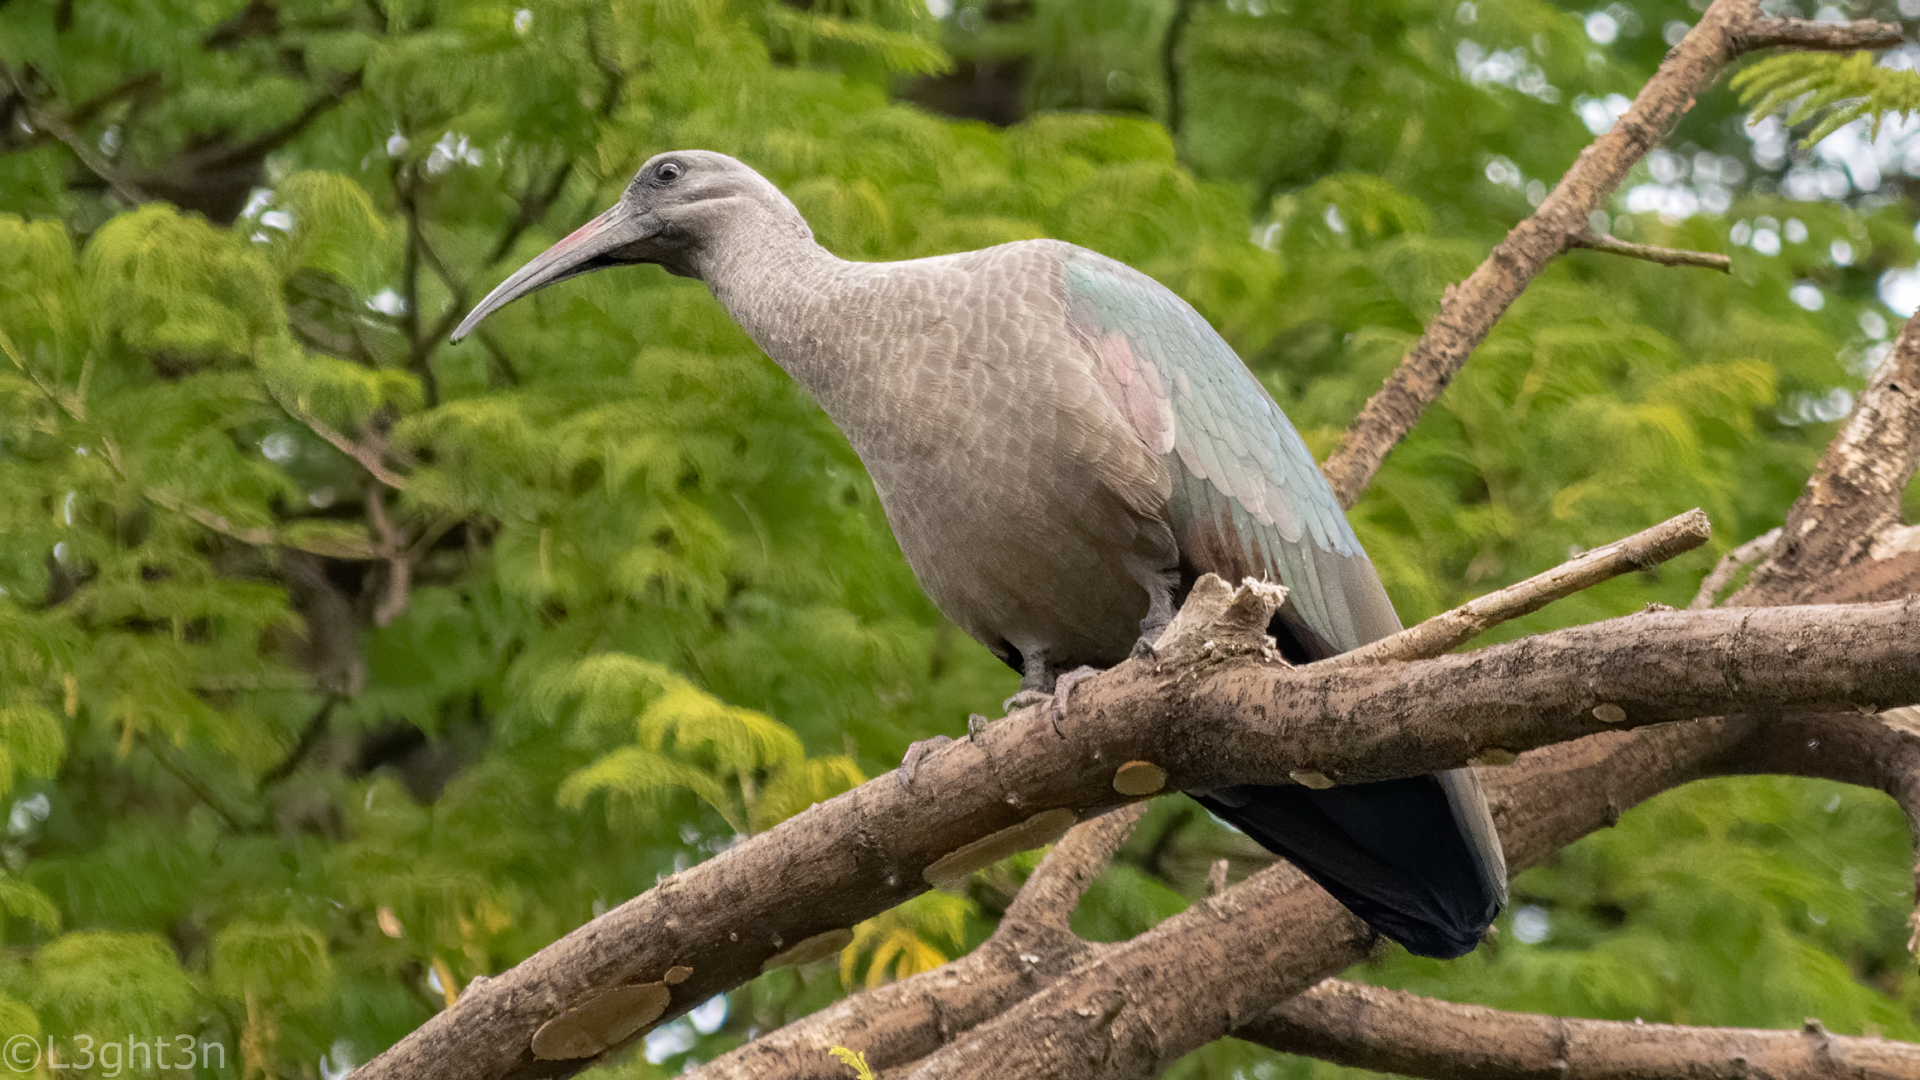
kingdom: Animalia
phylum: Chordata
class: Aves
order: Pelecaniformes
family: Threskiornithidae
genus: Bostrychia
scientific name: Bostrychia hagedash
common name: Hadada ibis
